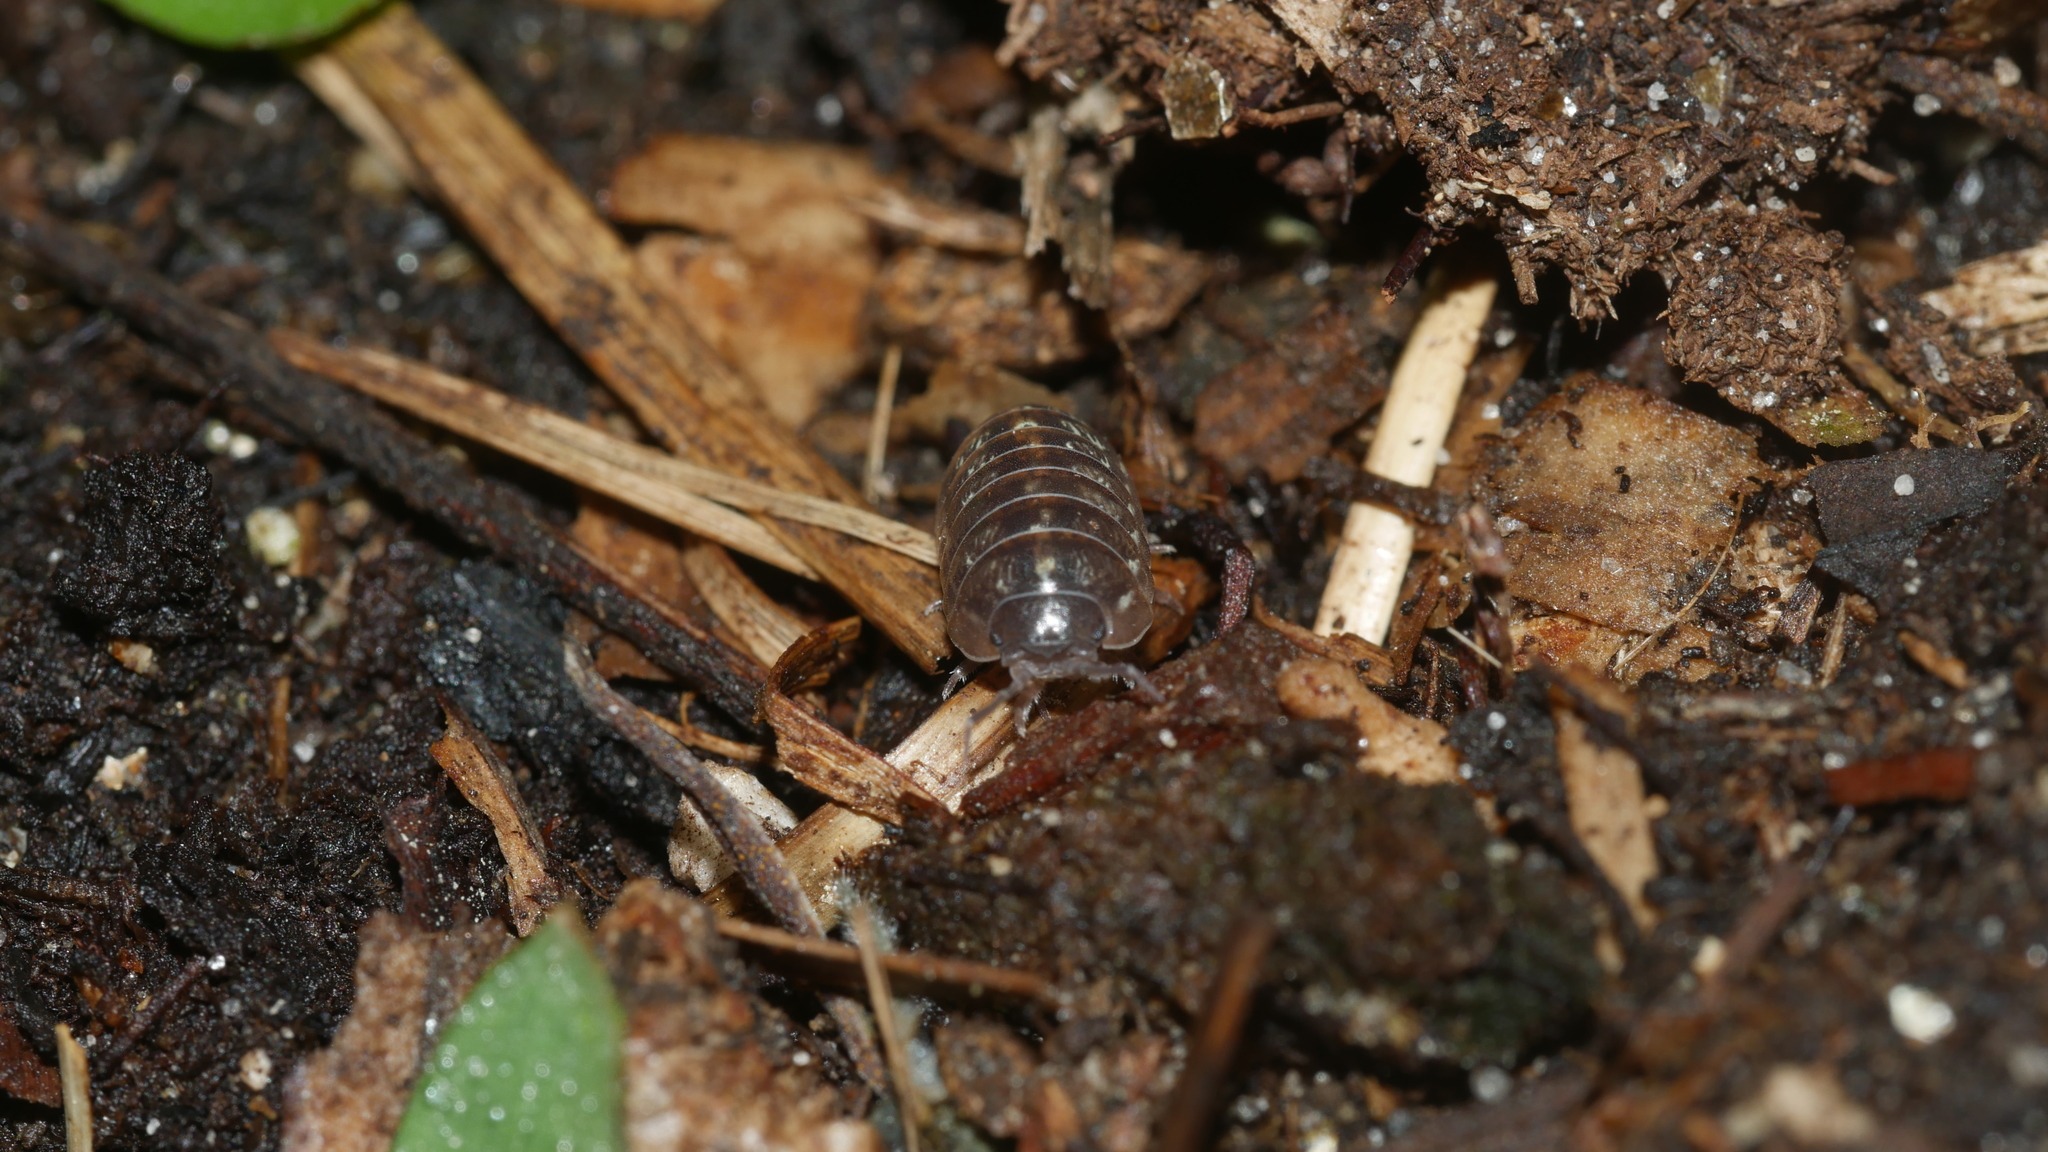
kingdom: Animalia
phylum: Arthropoda
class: Malacostraca
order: Isopoda
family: Armadillidiidae
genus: Armadillidium
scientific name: Armadillidium vulgare
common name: Common pill woodlouse
